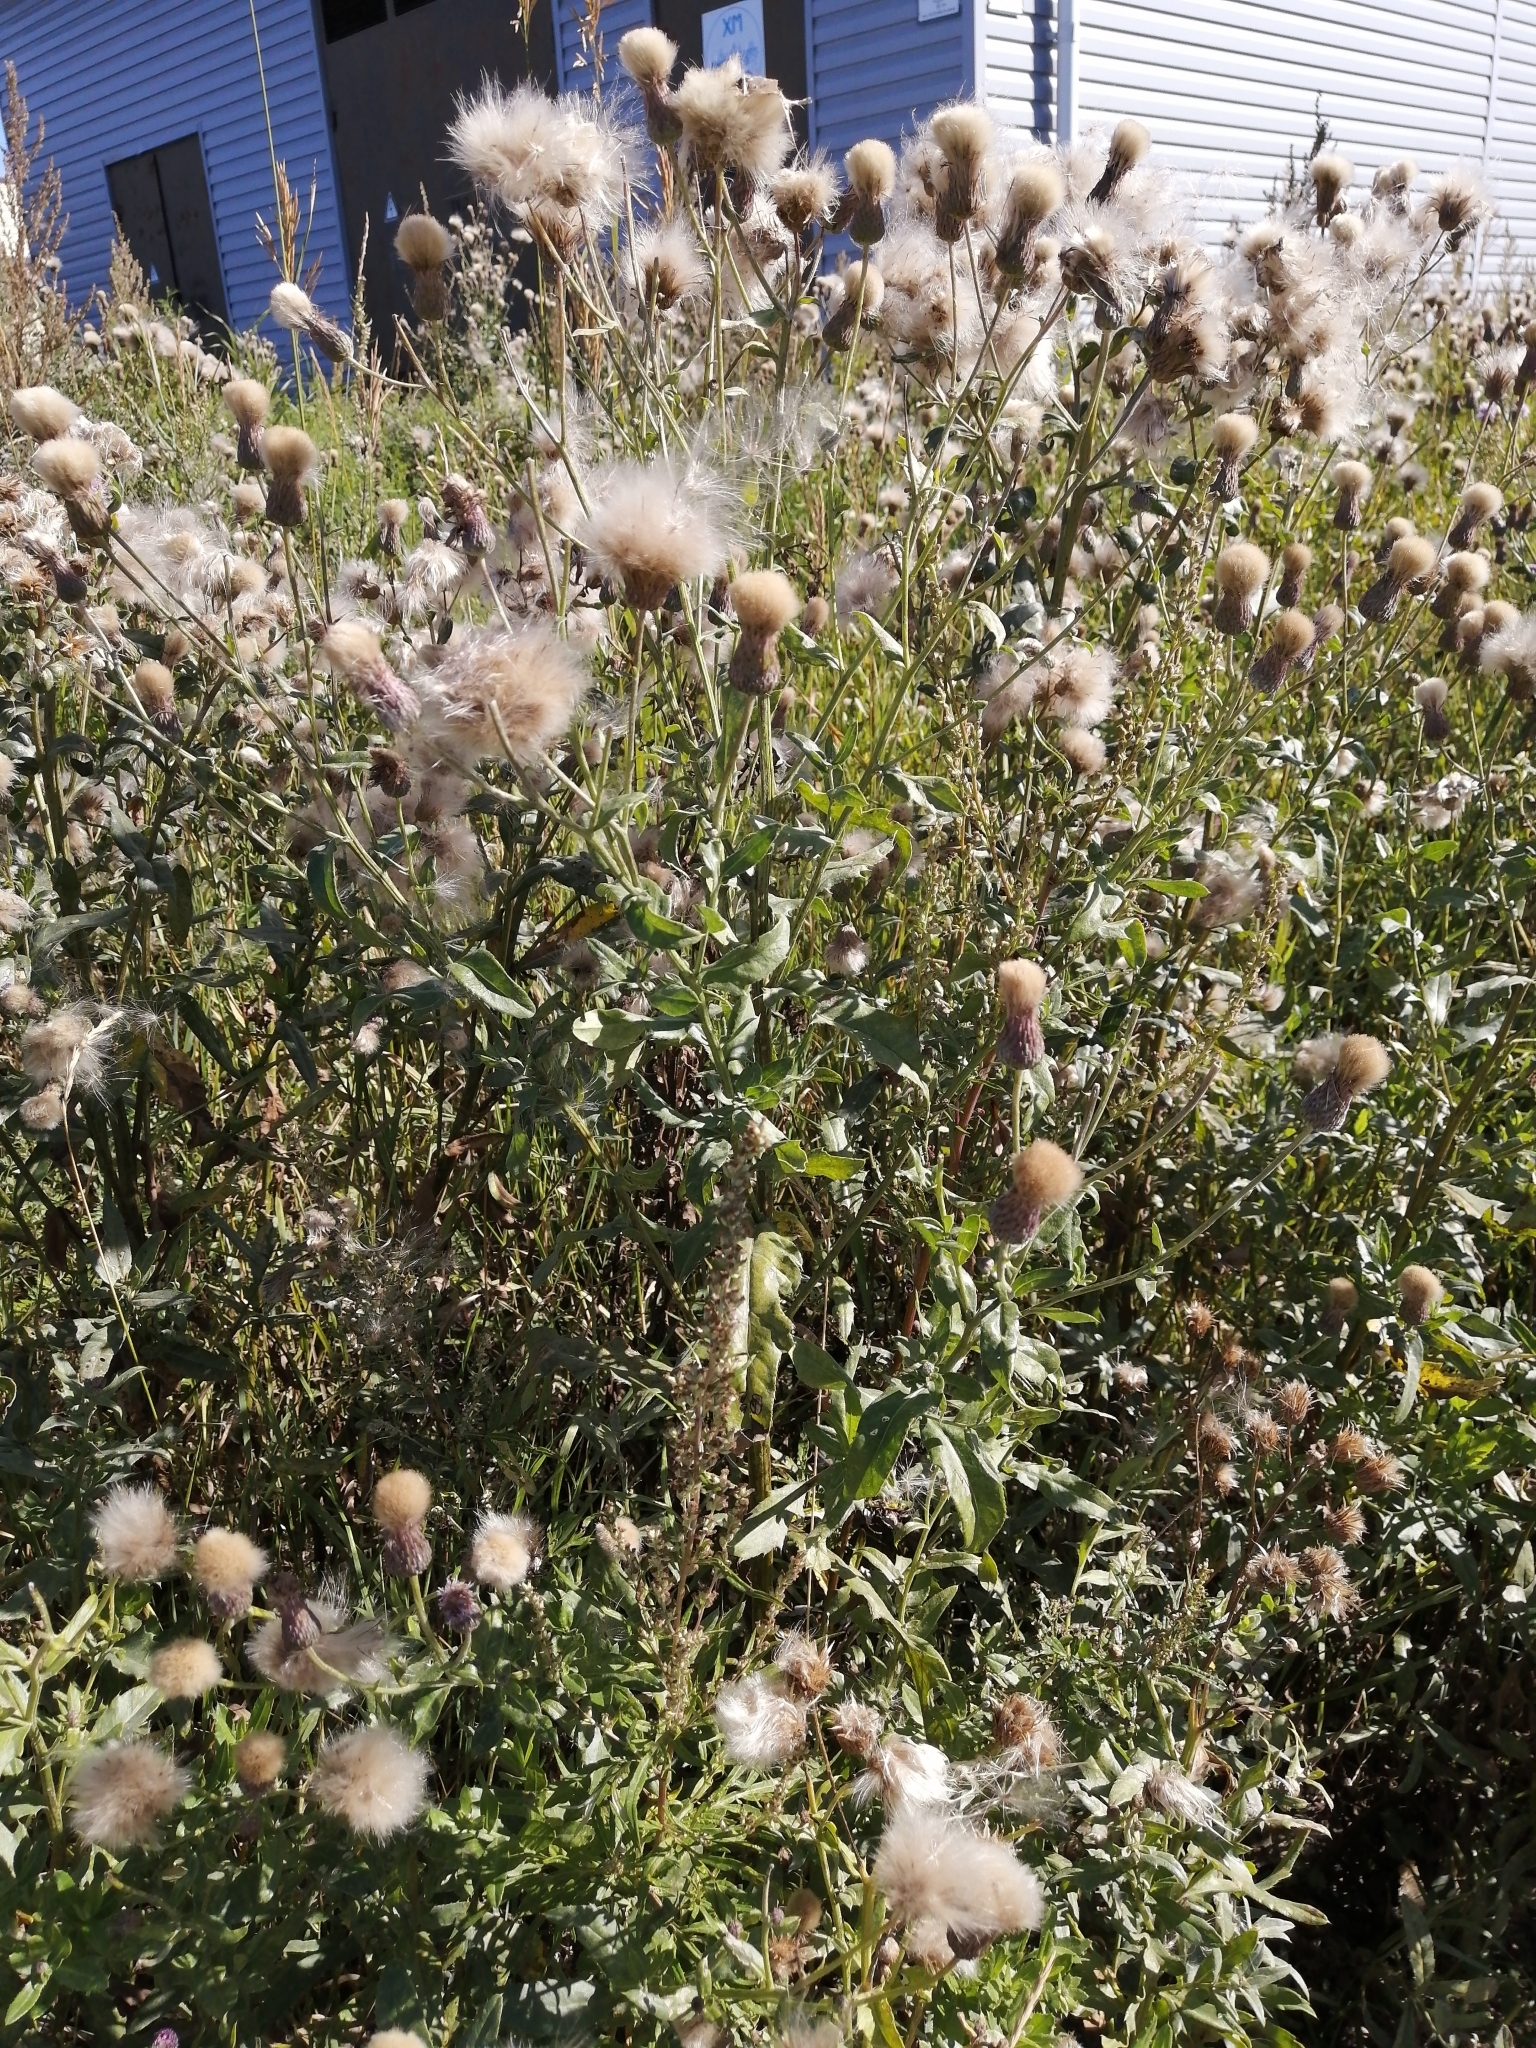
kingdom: Plantae
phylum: Tracheophyta
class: Magnoliopsida
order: Asterales
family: Asteraceae
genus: Cirsium
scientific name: Cirsium arvense
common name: Creeping thistle
